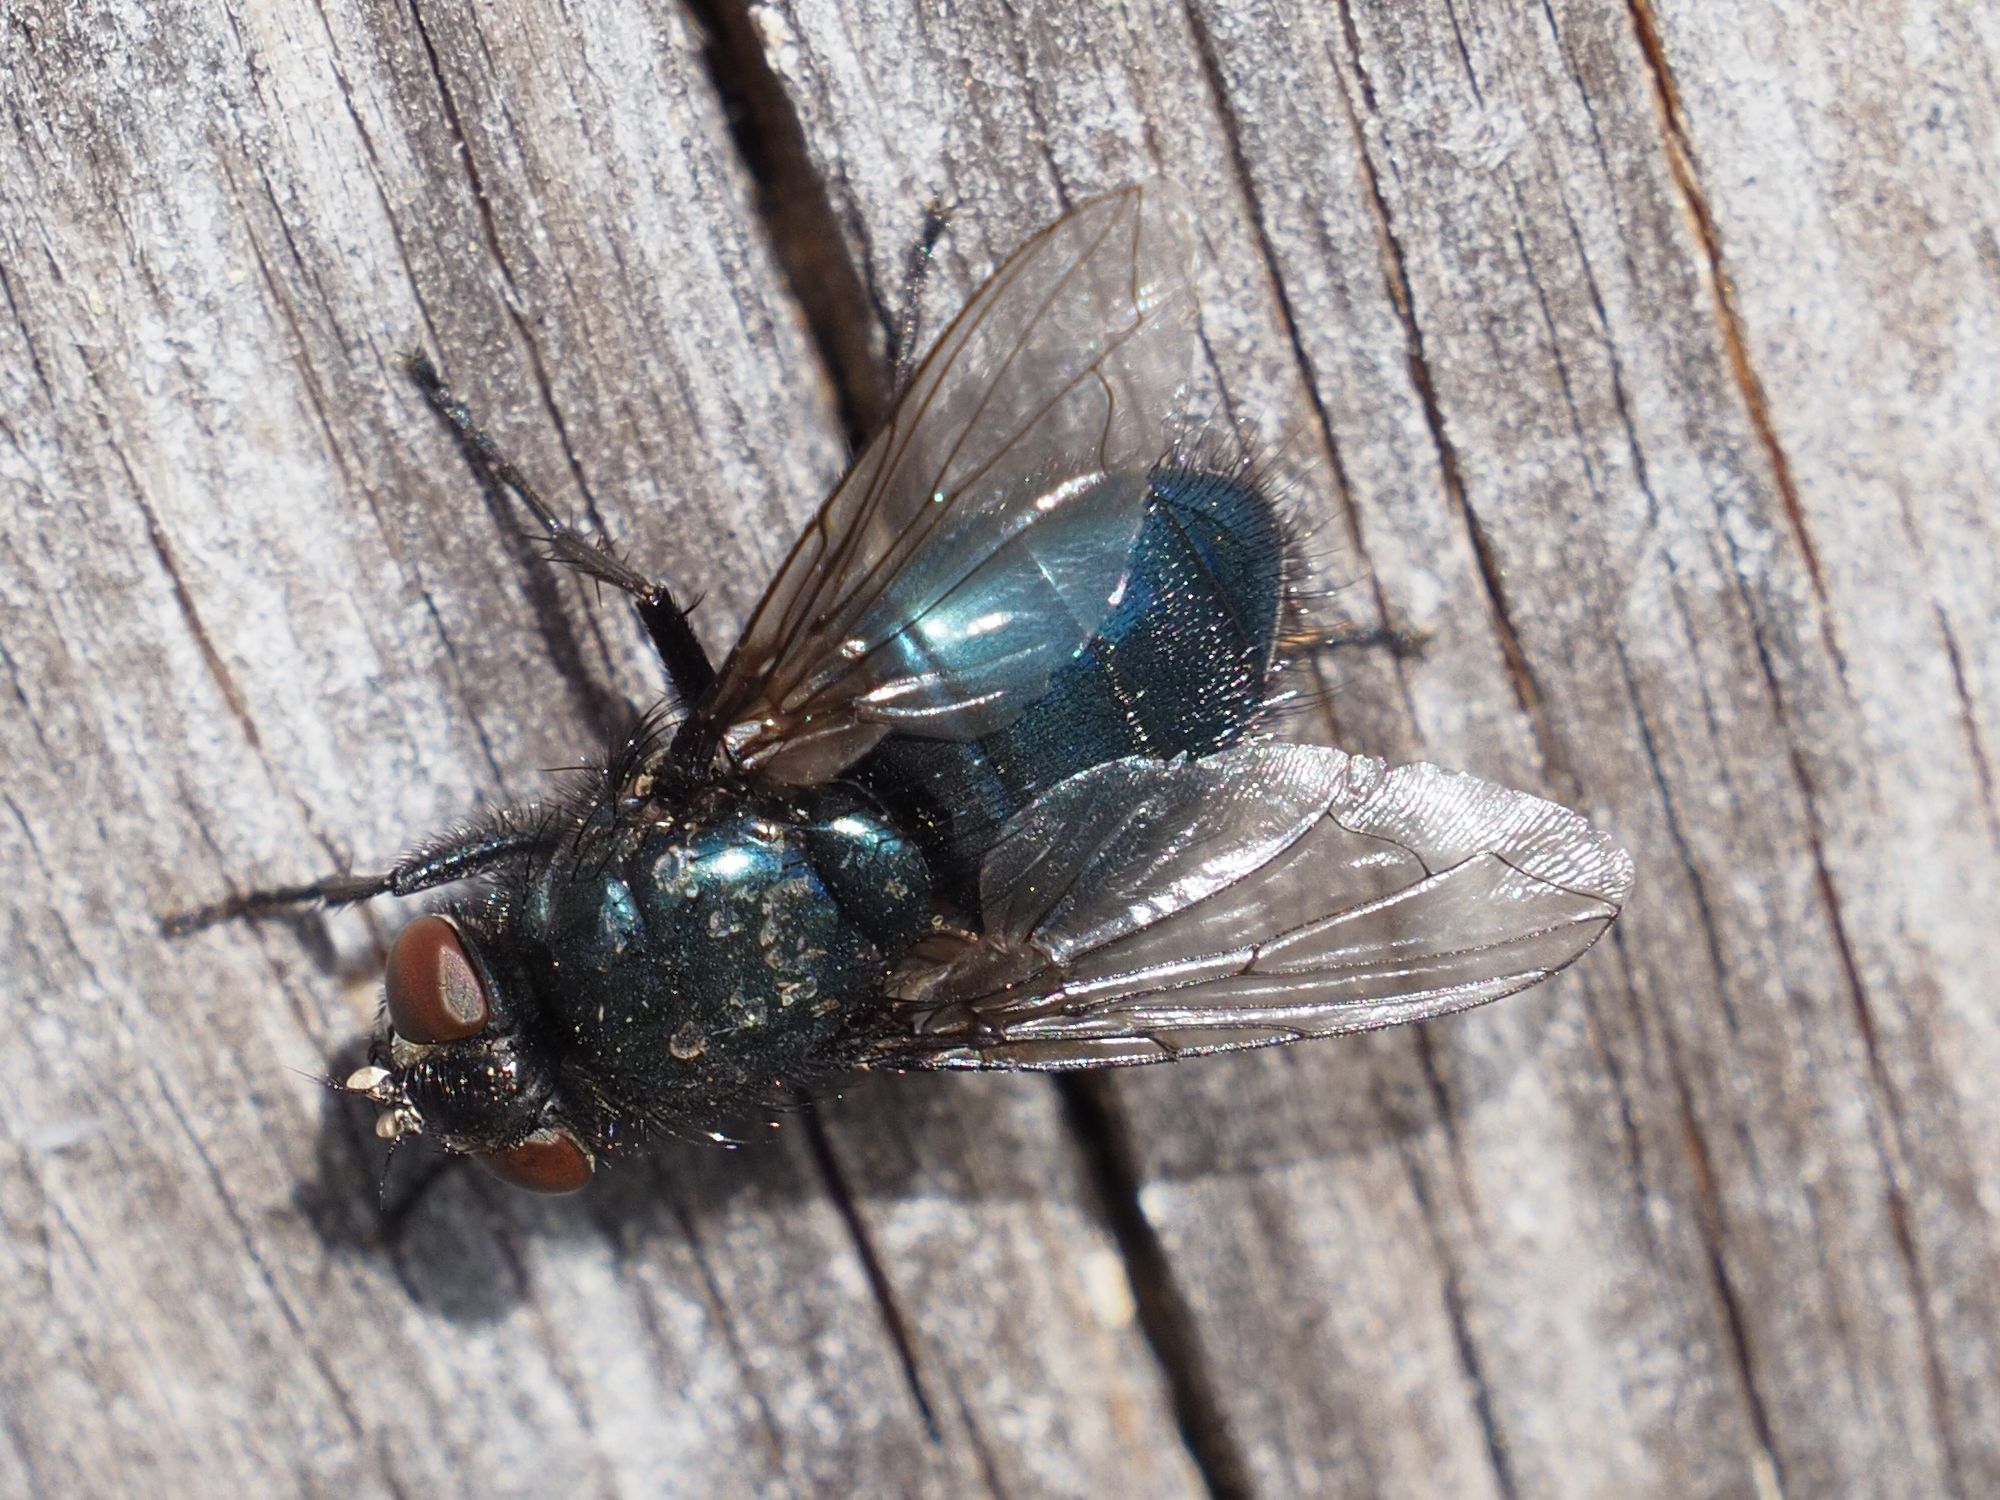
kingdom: Animalia
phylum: Arthropoda
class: Insecta
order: Diptera
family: Calliphoridae
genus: Protophormia
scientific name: Protophormia terraenovae
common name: Blackbottle
